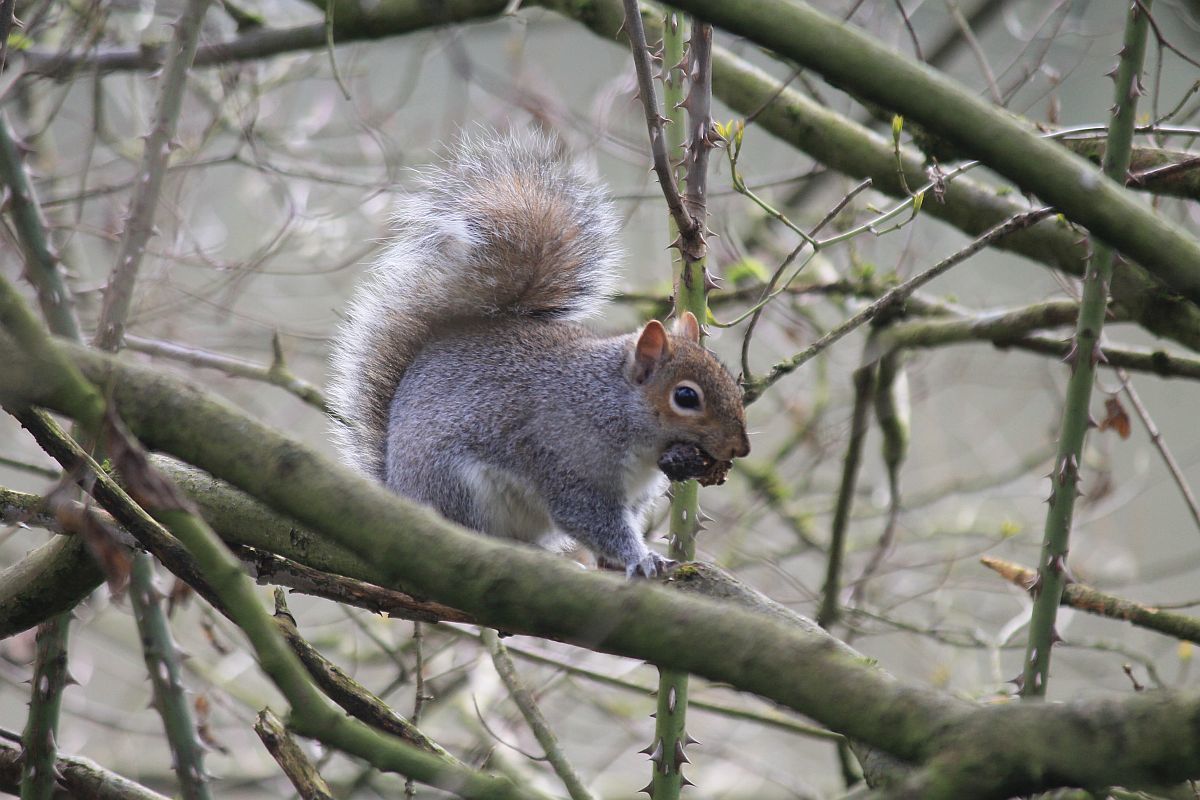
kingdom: Animalia
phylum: Chordata
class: Mammalia
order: Rodentia
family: Sciuridae
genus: Sciurus
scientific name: Sciurus carolinensis
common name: Eastern gray squirrel
